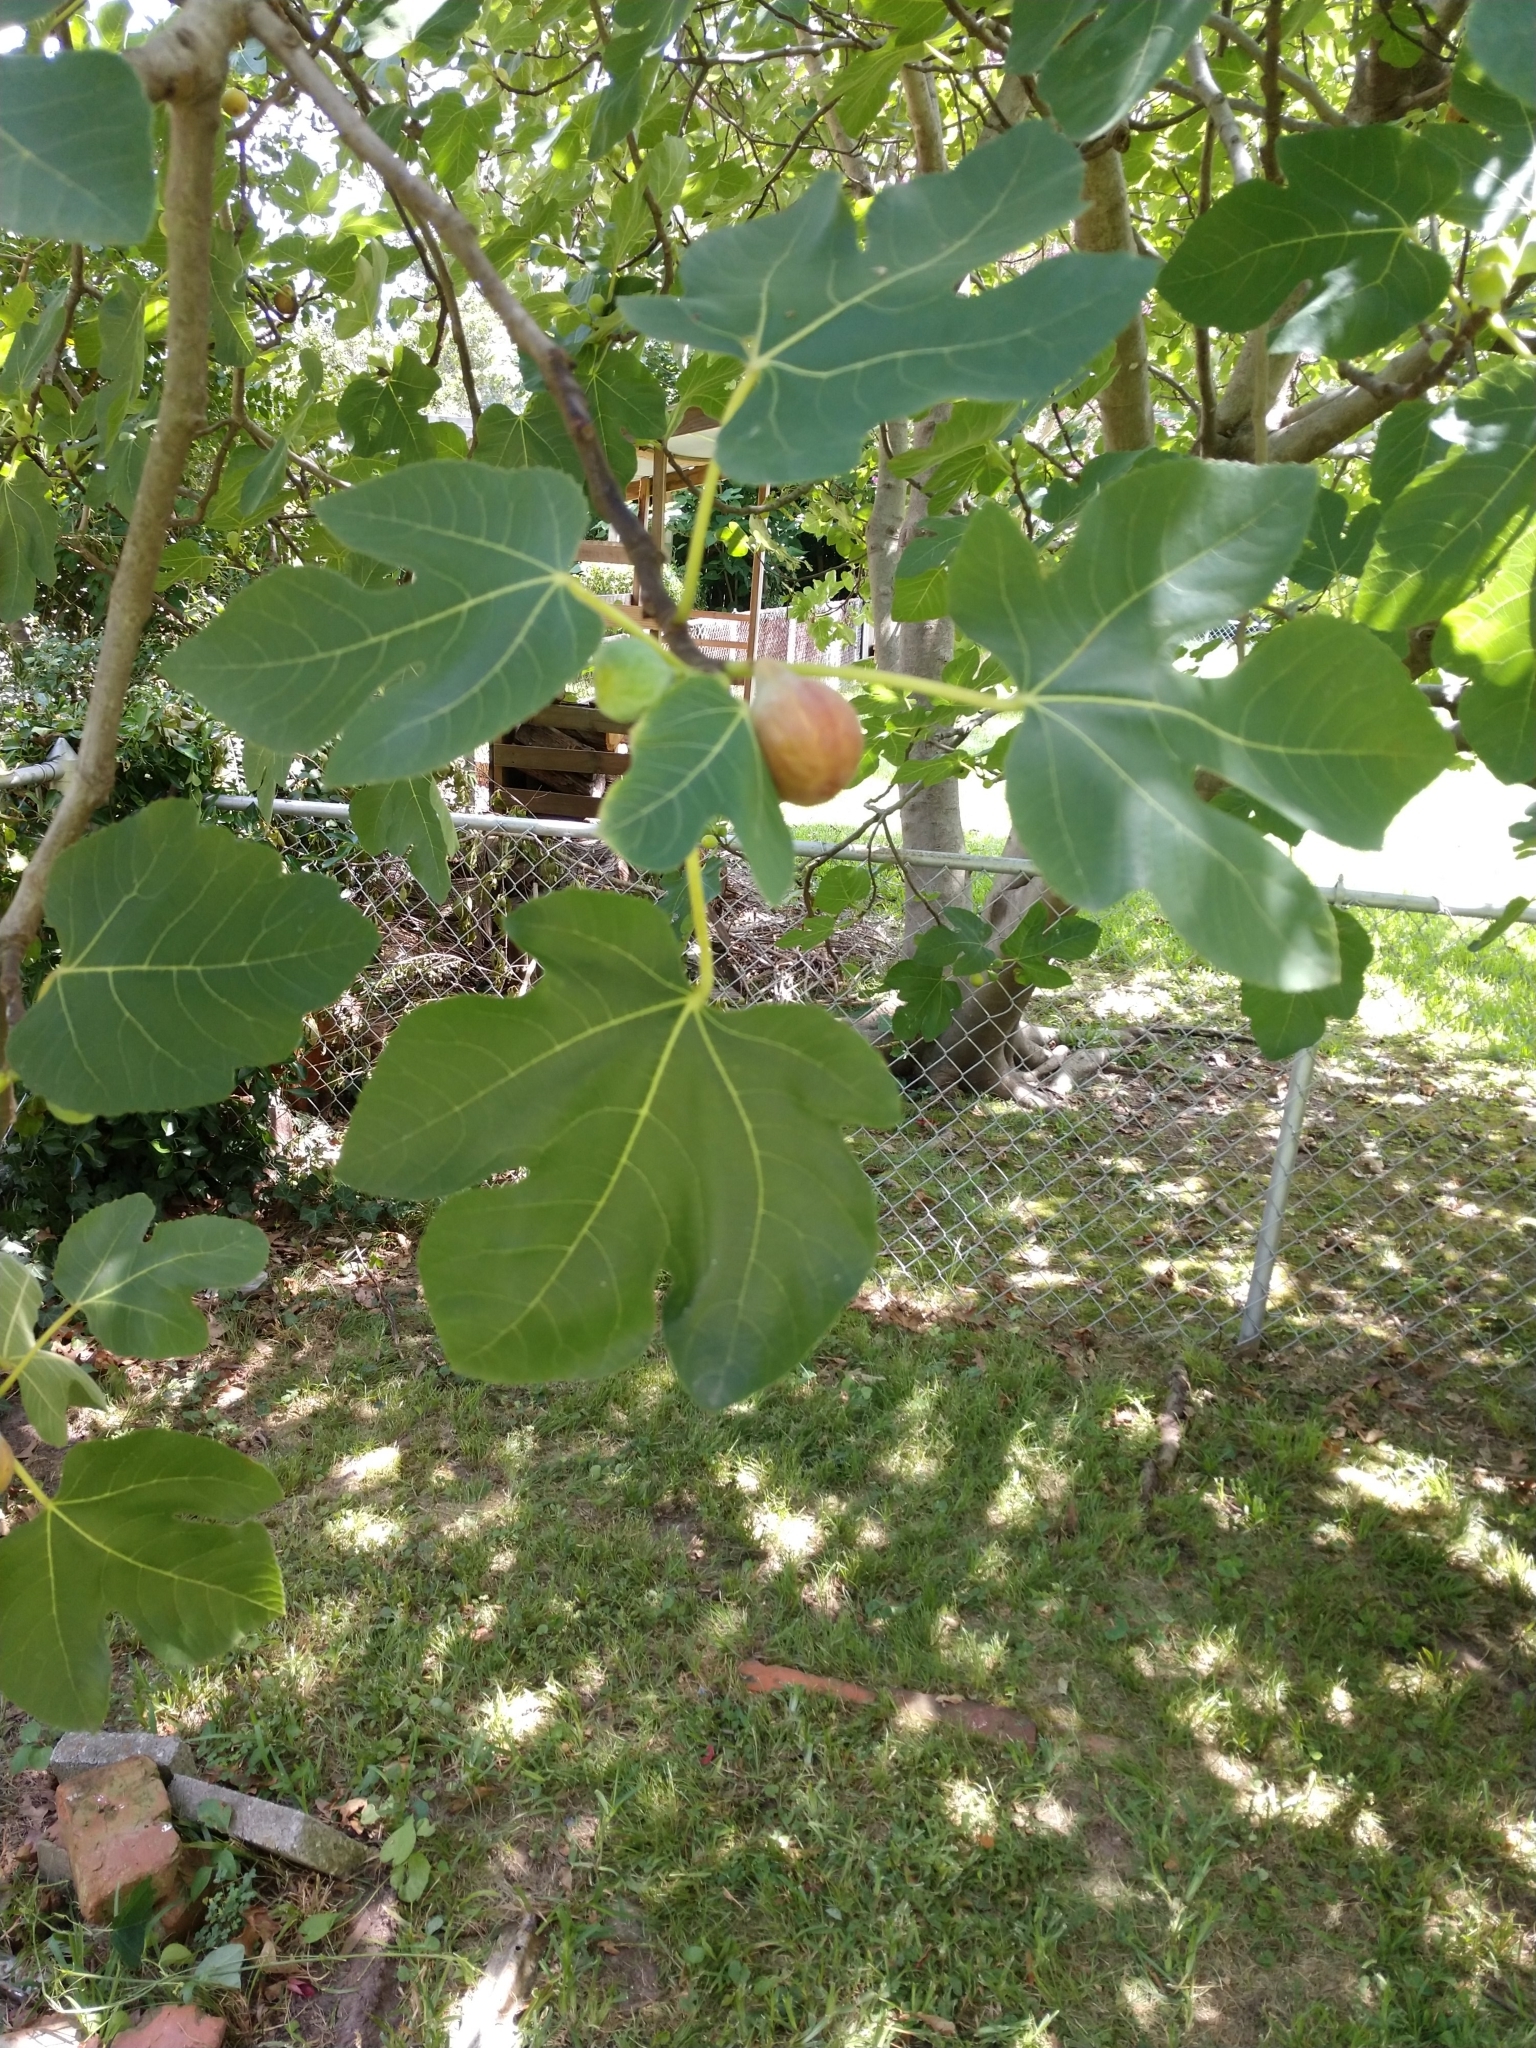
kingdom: Plantae
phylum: Tracheophyta
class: Magnoliopsida
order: Rosales
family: Moraceae
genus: Ficus
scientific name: Ficus carica
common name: Fig
